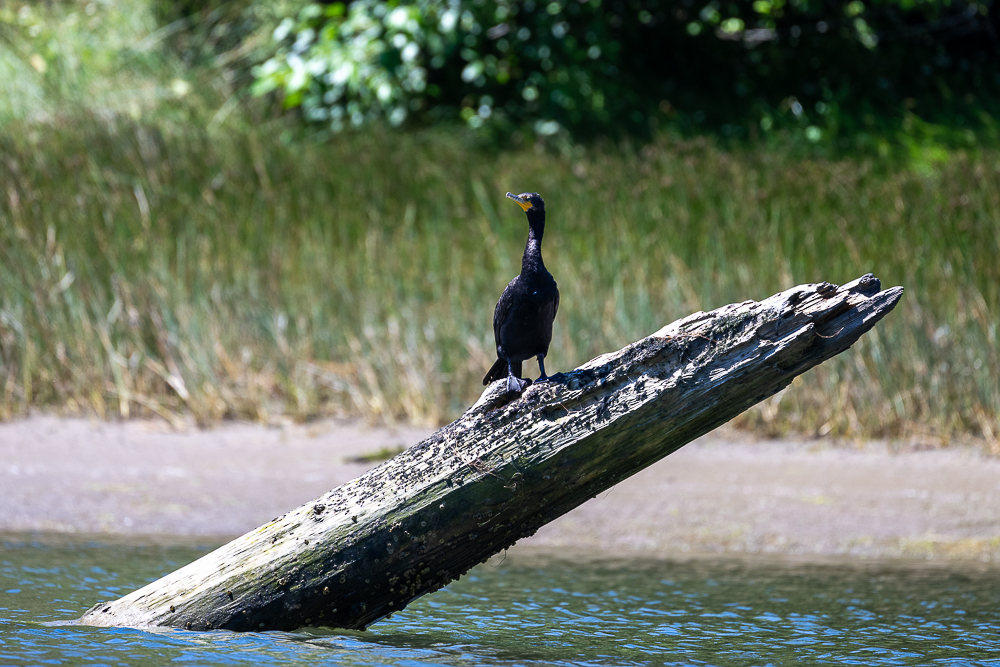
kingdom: Animalia
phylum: Chordata
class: Aves
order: Suliformes
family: Phalacrocoracidae
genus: Phalacrocorax
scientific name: Phalacrocorax auritus
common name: Double-crested cormorant
